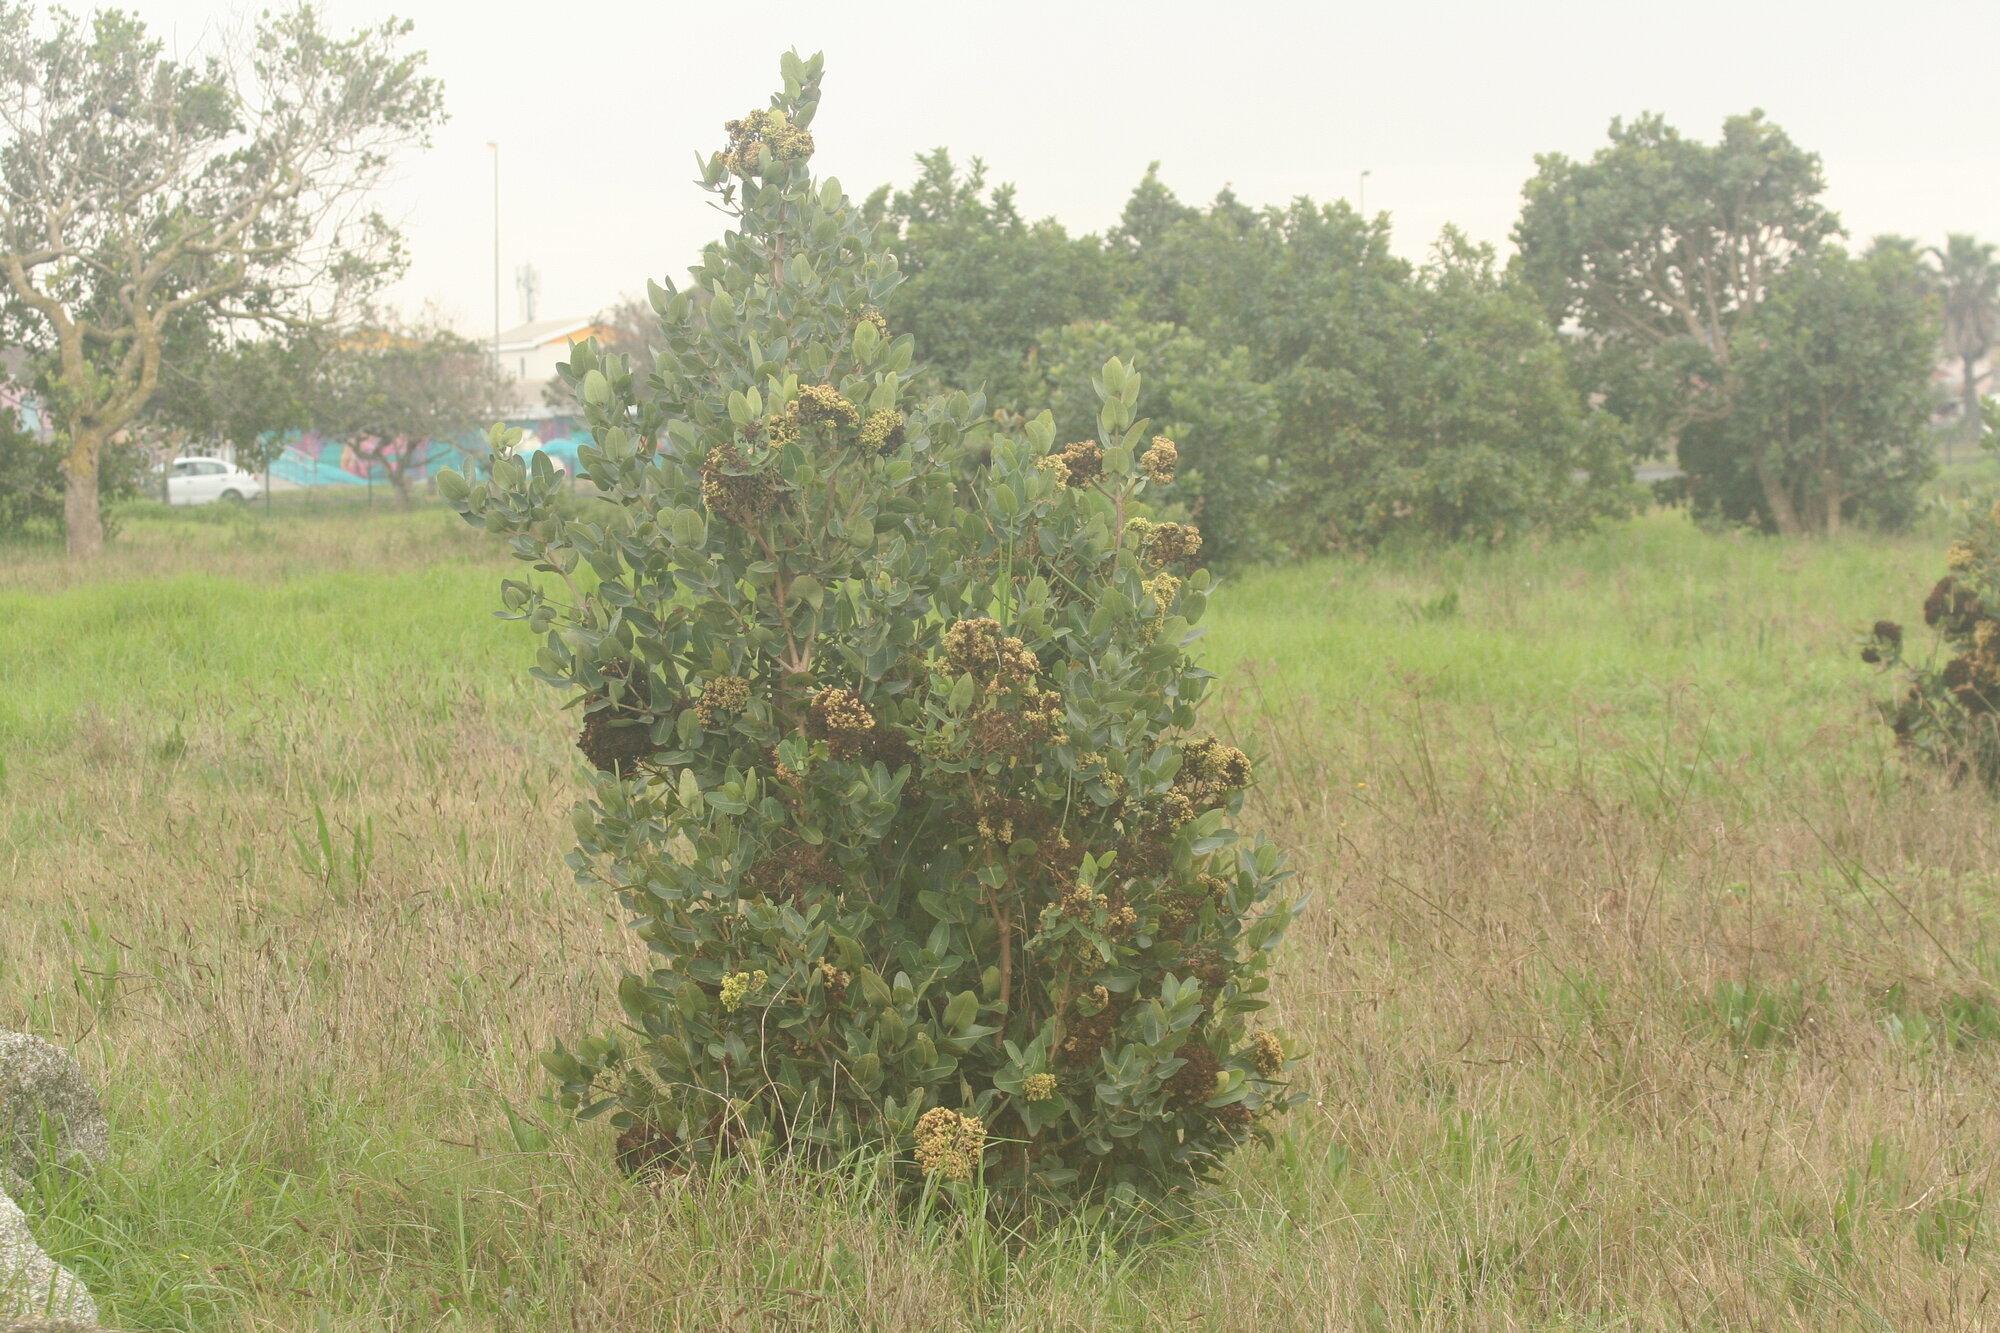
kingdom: Plantae
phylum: Tracheophyta
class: Magnoliopsida
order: Myrtales
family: Myrtaceae
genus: Syzygium
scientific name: Syzygium cordatum
